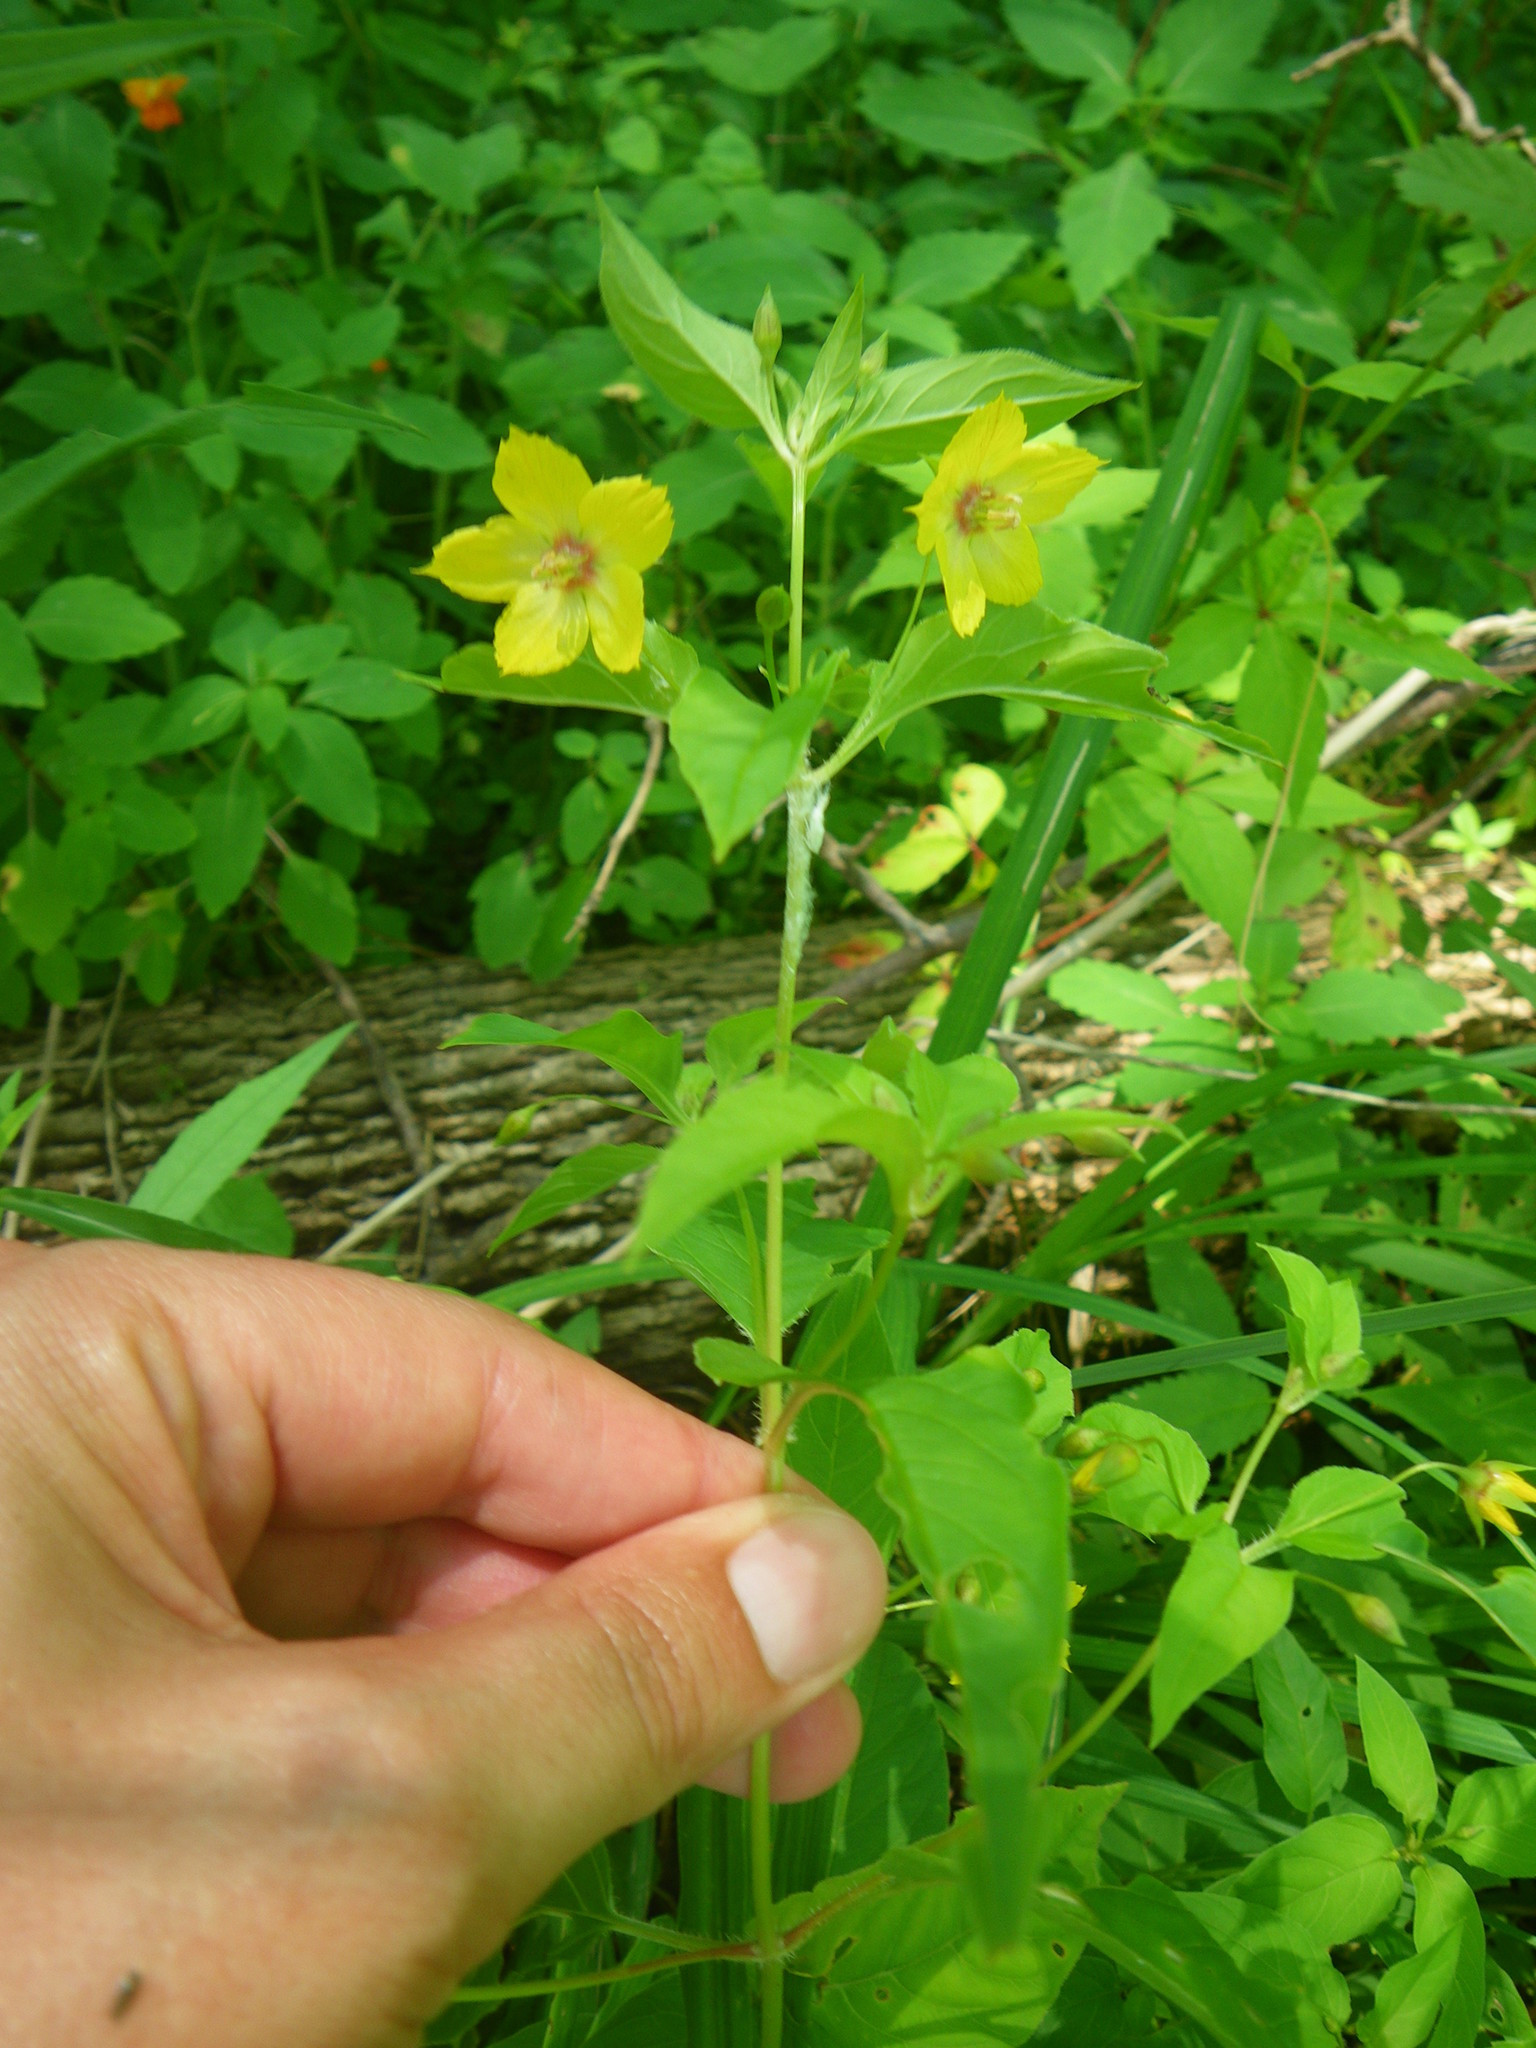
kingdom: Plantae
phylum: Tracheophyta
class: Magnoliopsida
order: Ericales
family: Primulaceae
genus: Lysimachia
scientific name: Lysimachia ciliata
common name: Fringed loosestrife
